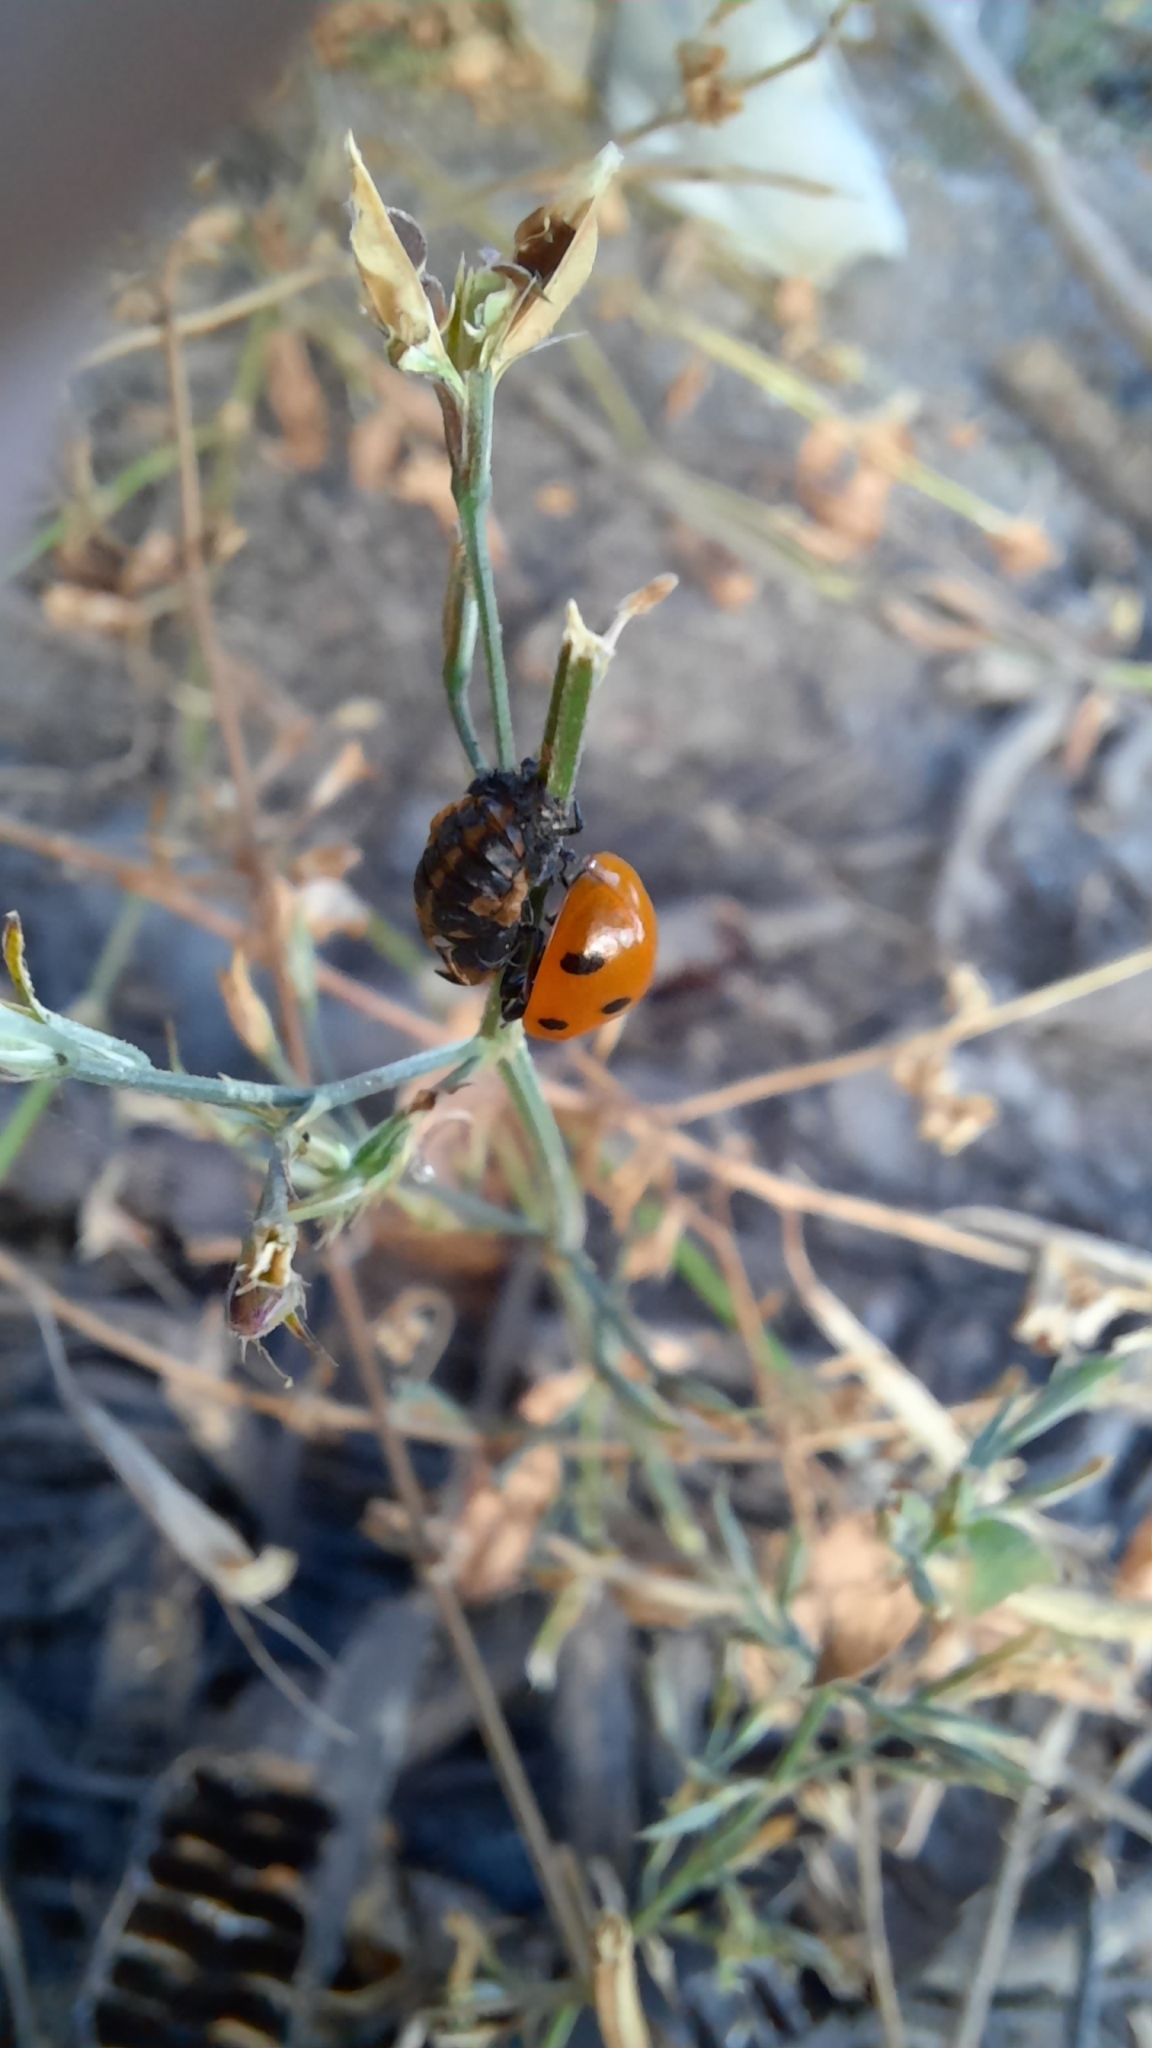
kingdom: Animalia
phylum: Arthropoda
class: Insecta
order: Coleoptera
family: Coccinellidae
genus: Coccinella
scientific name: Coccinella septempunctata
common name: Sevenspotted lady beetle
